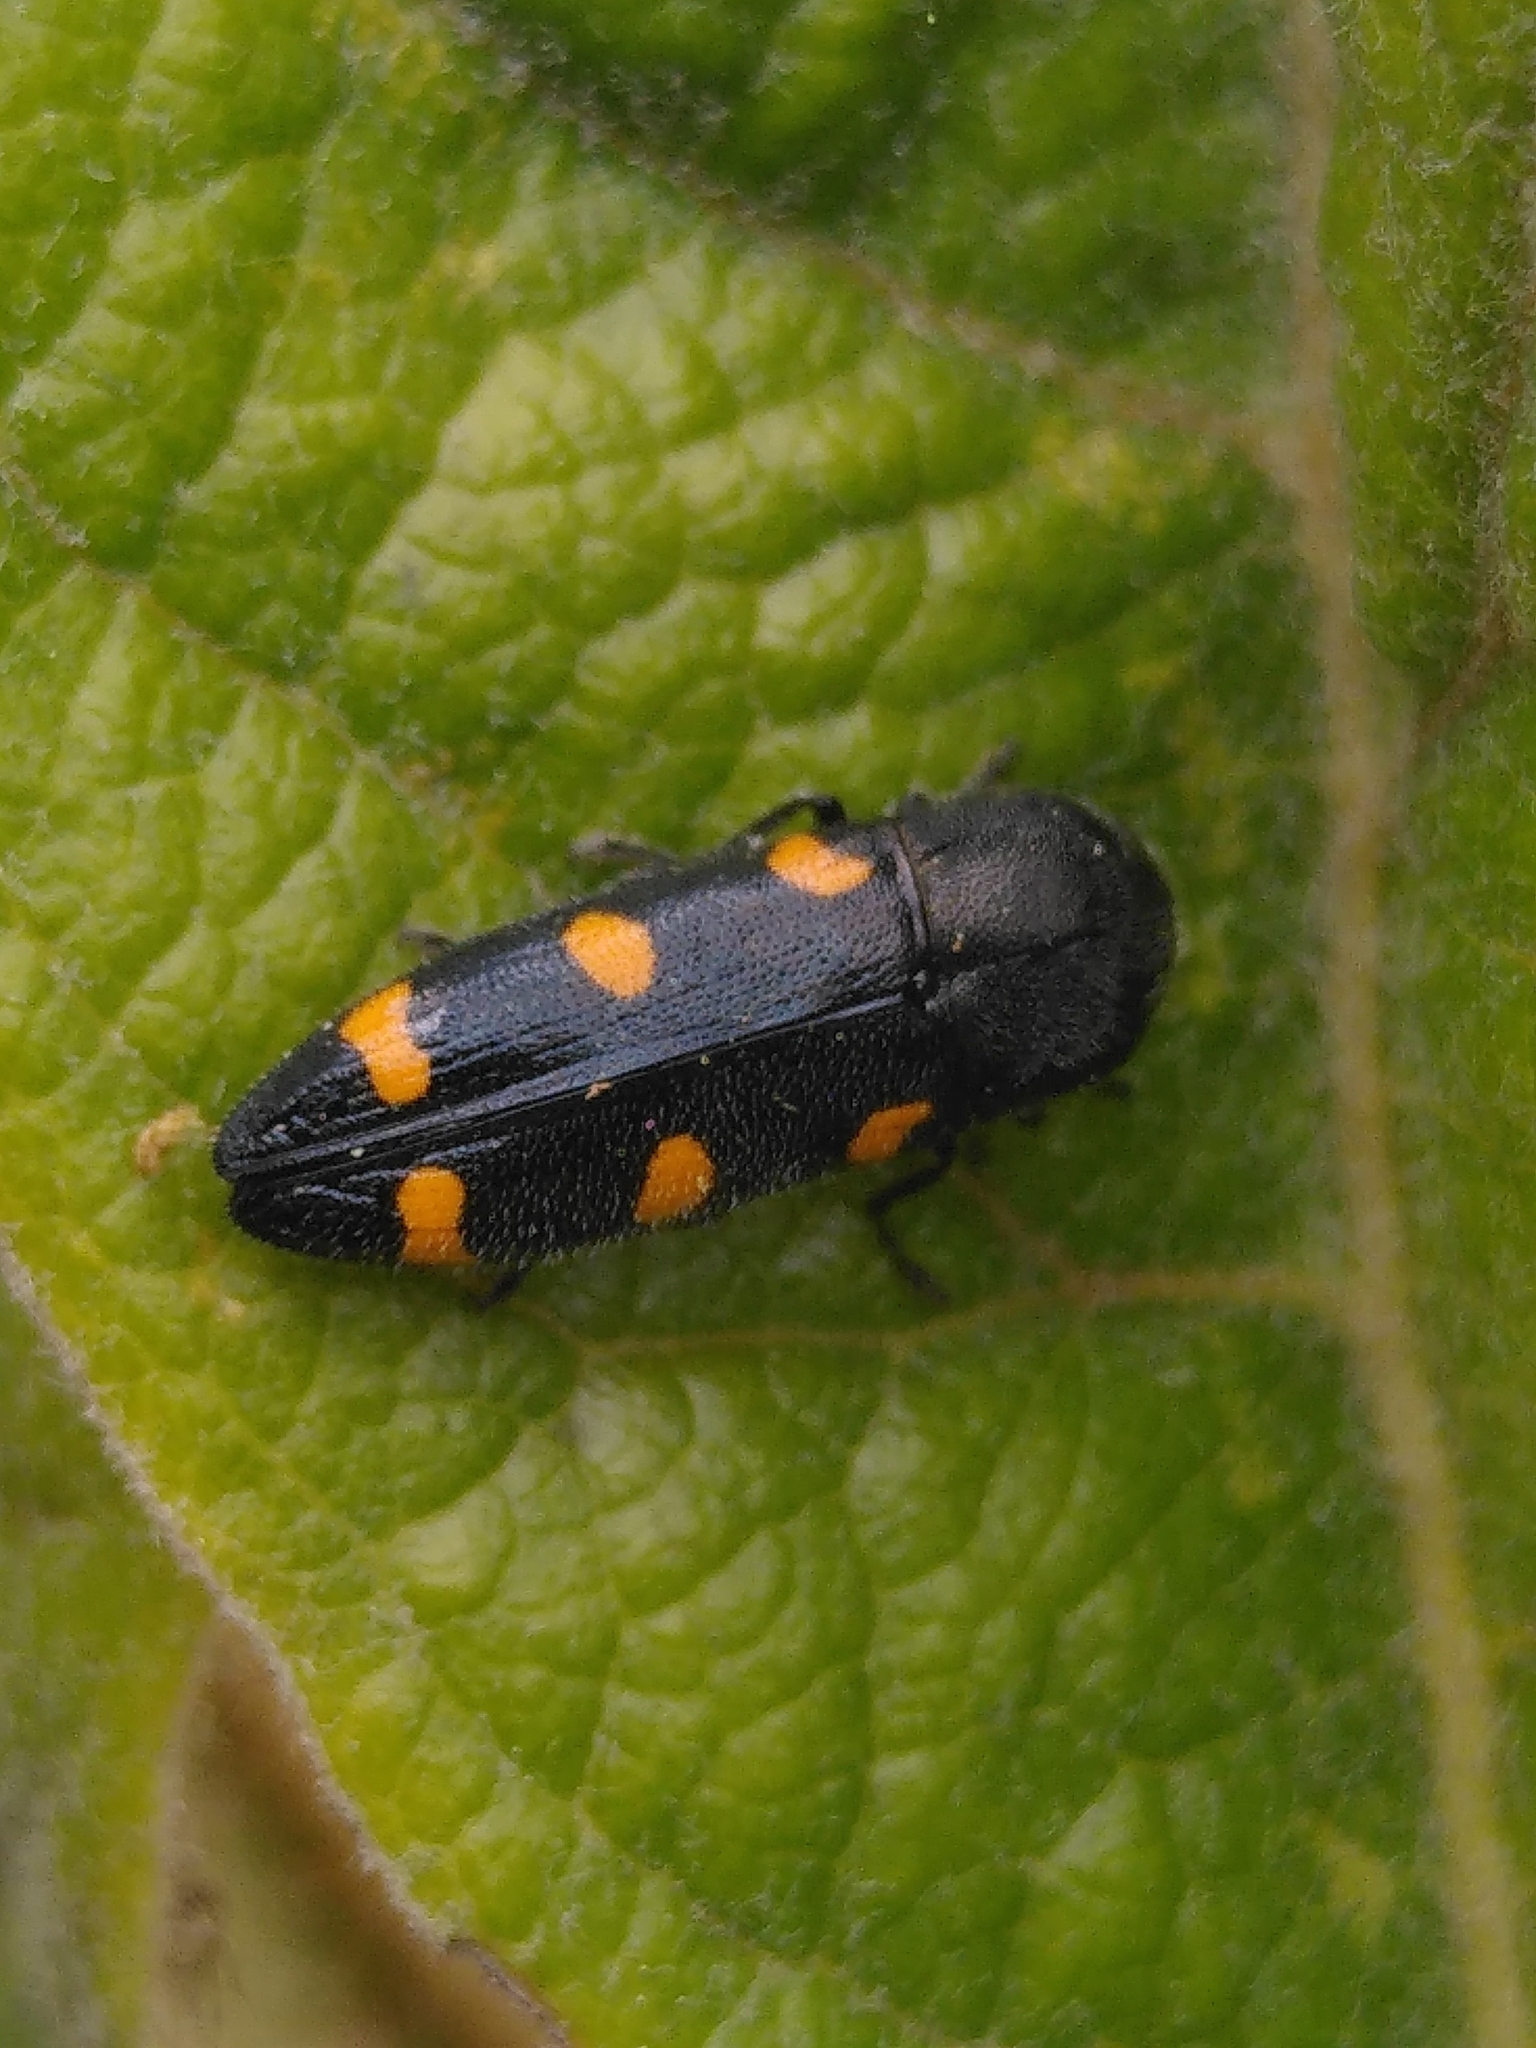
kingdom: Animalia
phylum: Arthropoda
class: Insecta
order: Coleoptera
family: Buprestidae
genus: Ptosima
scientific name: Ptosima undecimmaculata
